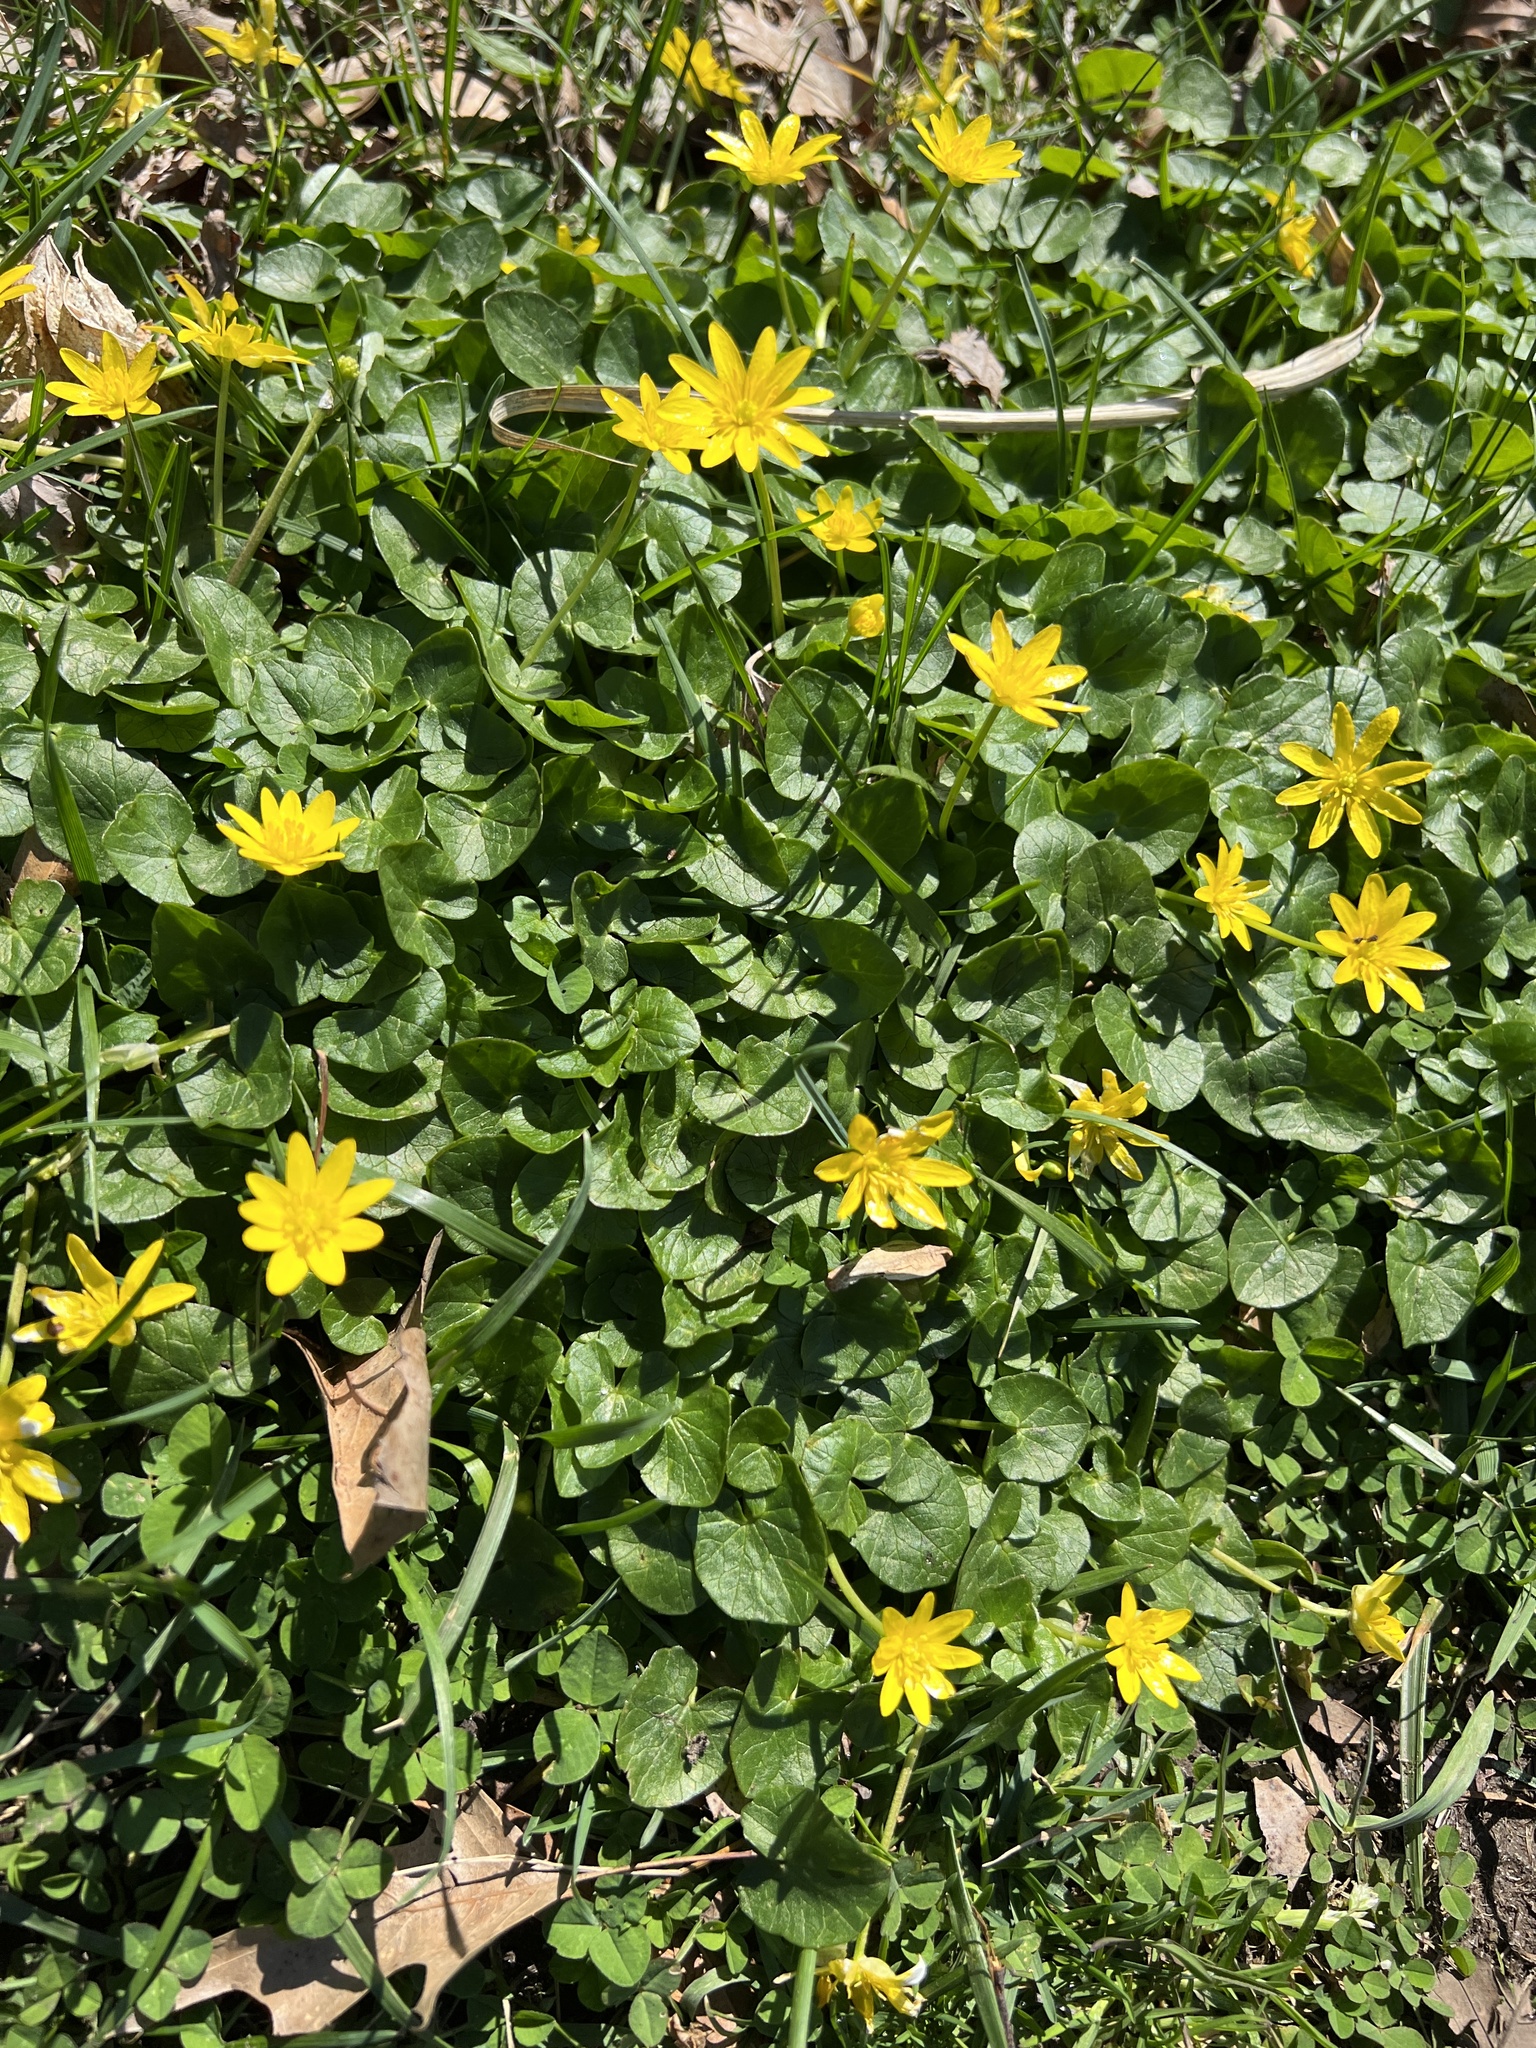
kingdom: Plantae
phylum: Tracheophyta
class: Magnoliopsida
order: Ranunculales
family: Ranunculaceae
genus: Ficaria
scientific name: Ficaria verna
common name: Lesser celandine
